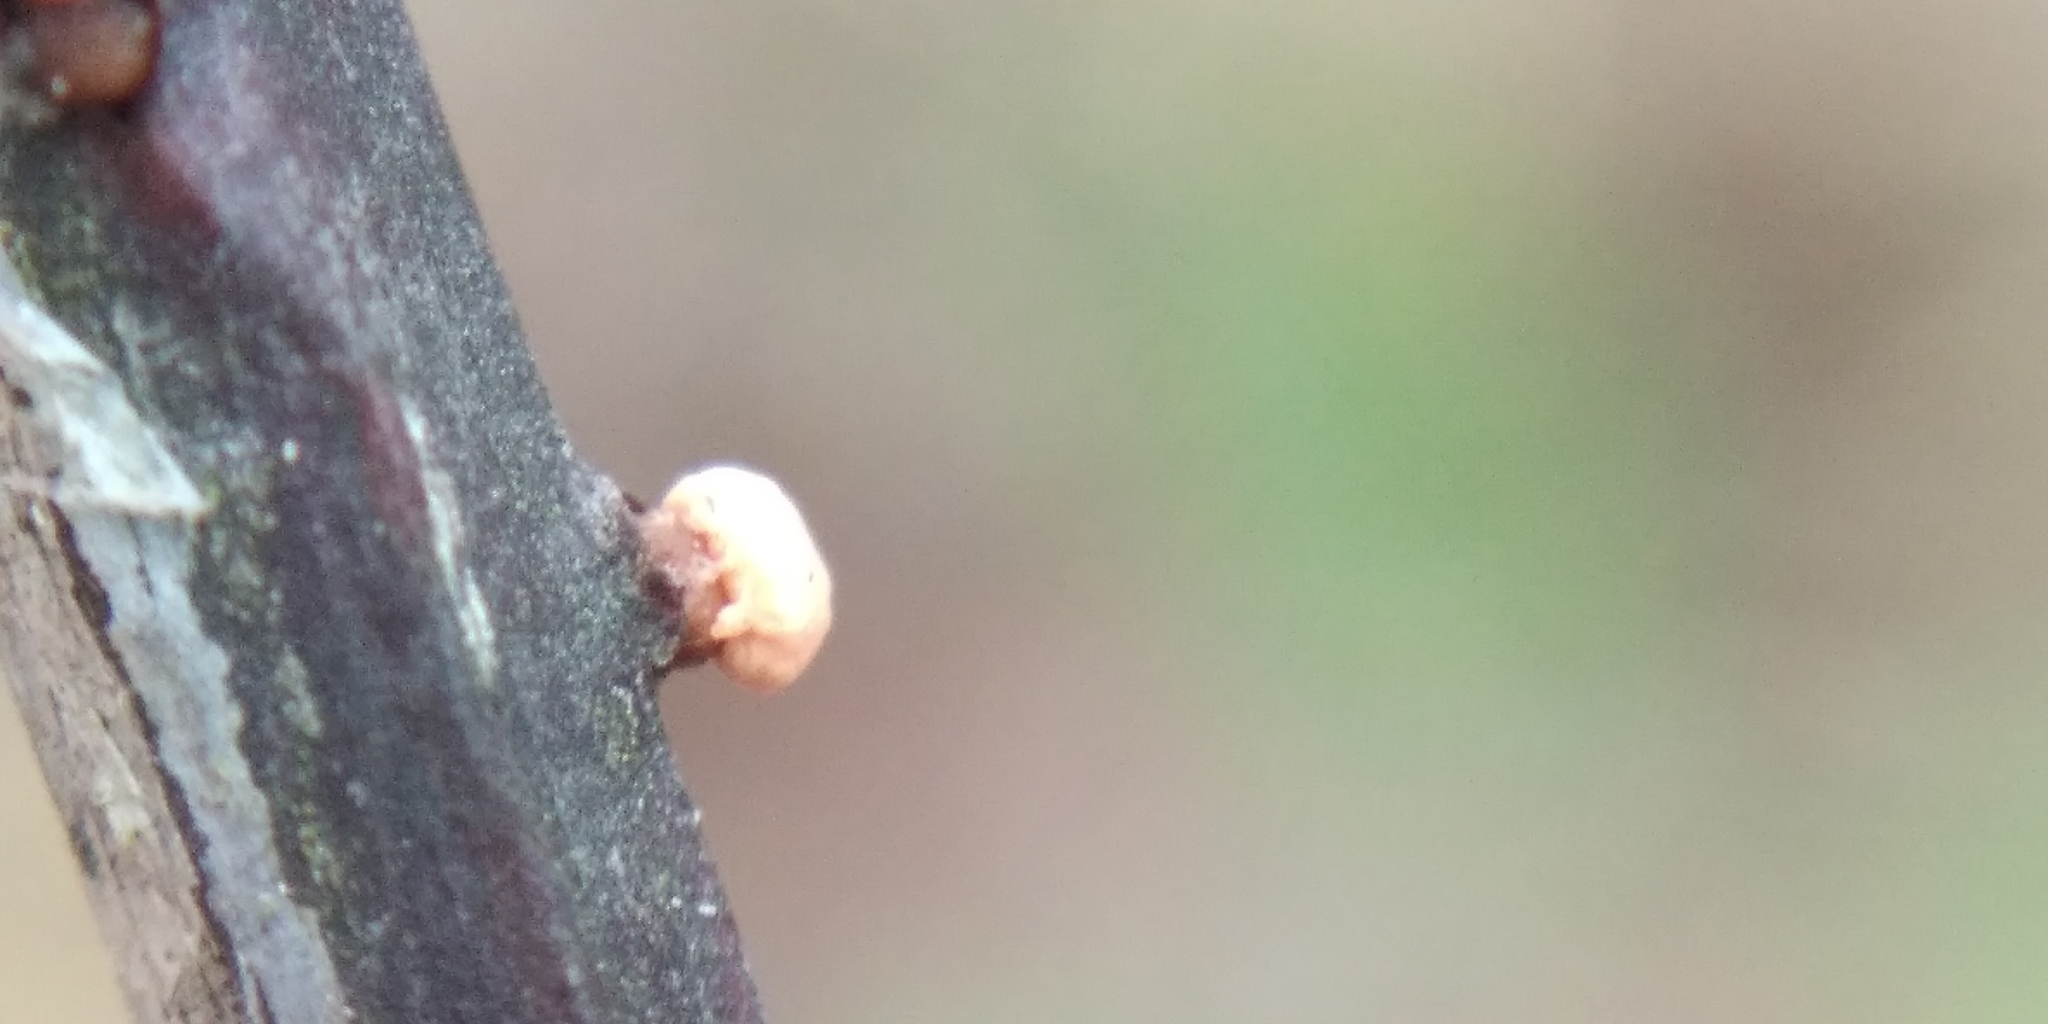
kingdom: Fungi
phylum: Ascomycota
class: Sordariomycetes
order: Hypocreales
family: Nectriaceae
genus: Nectria
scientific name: Nectria cinnabarina
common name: Coral spot
